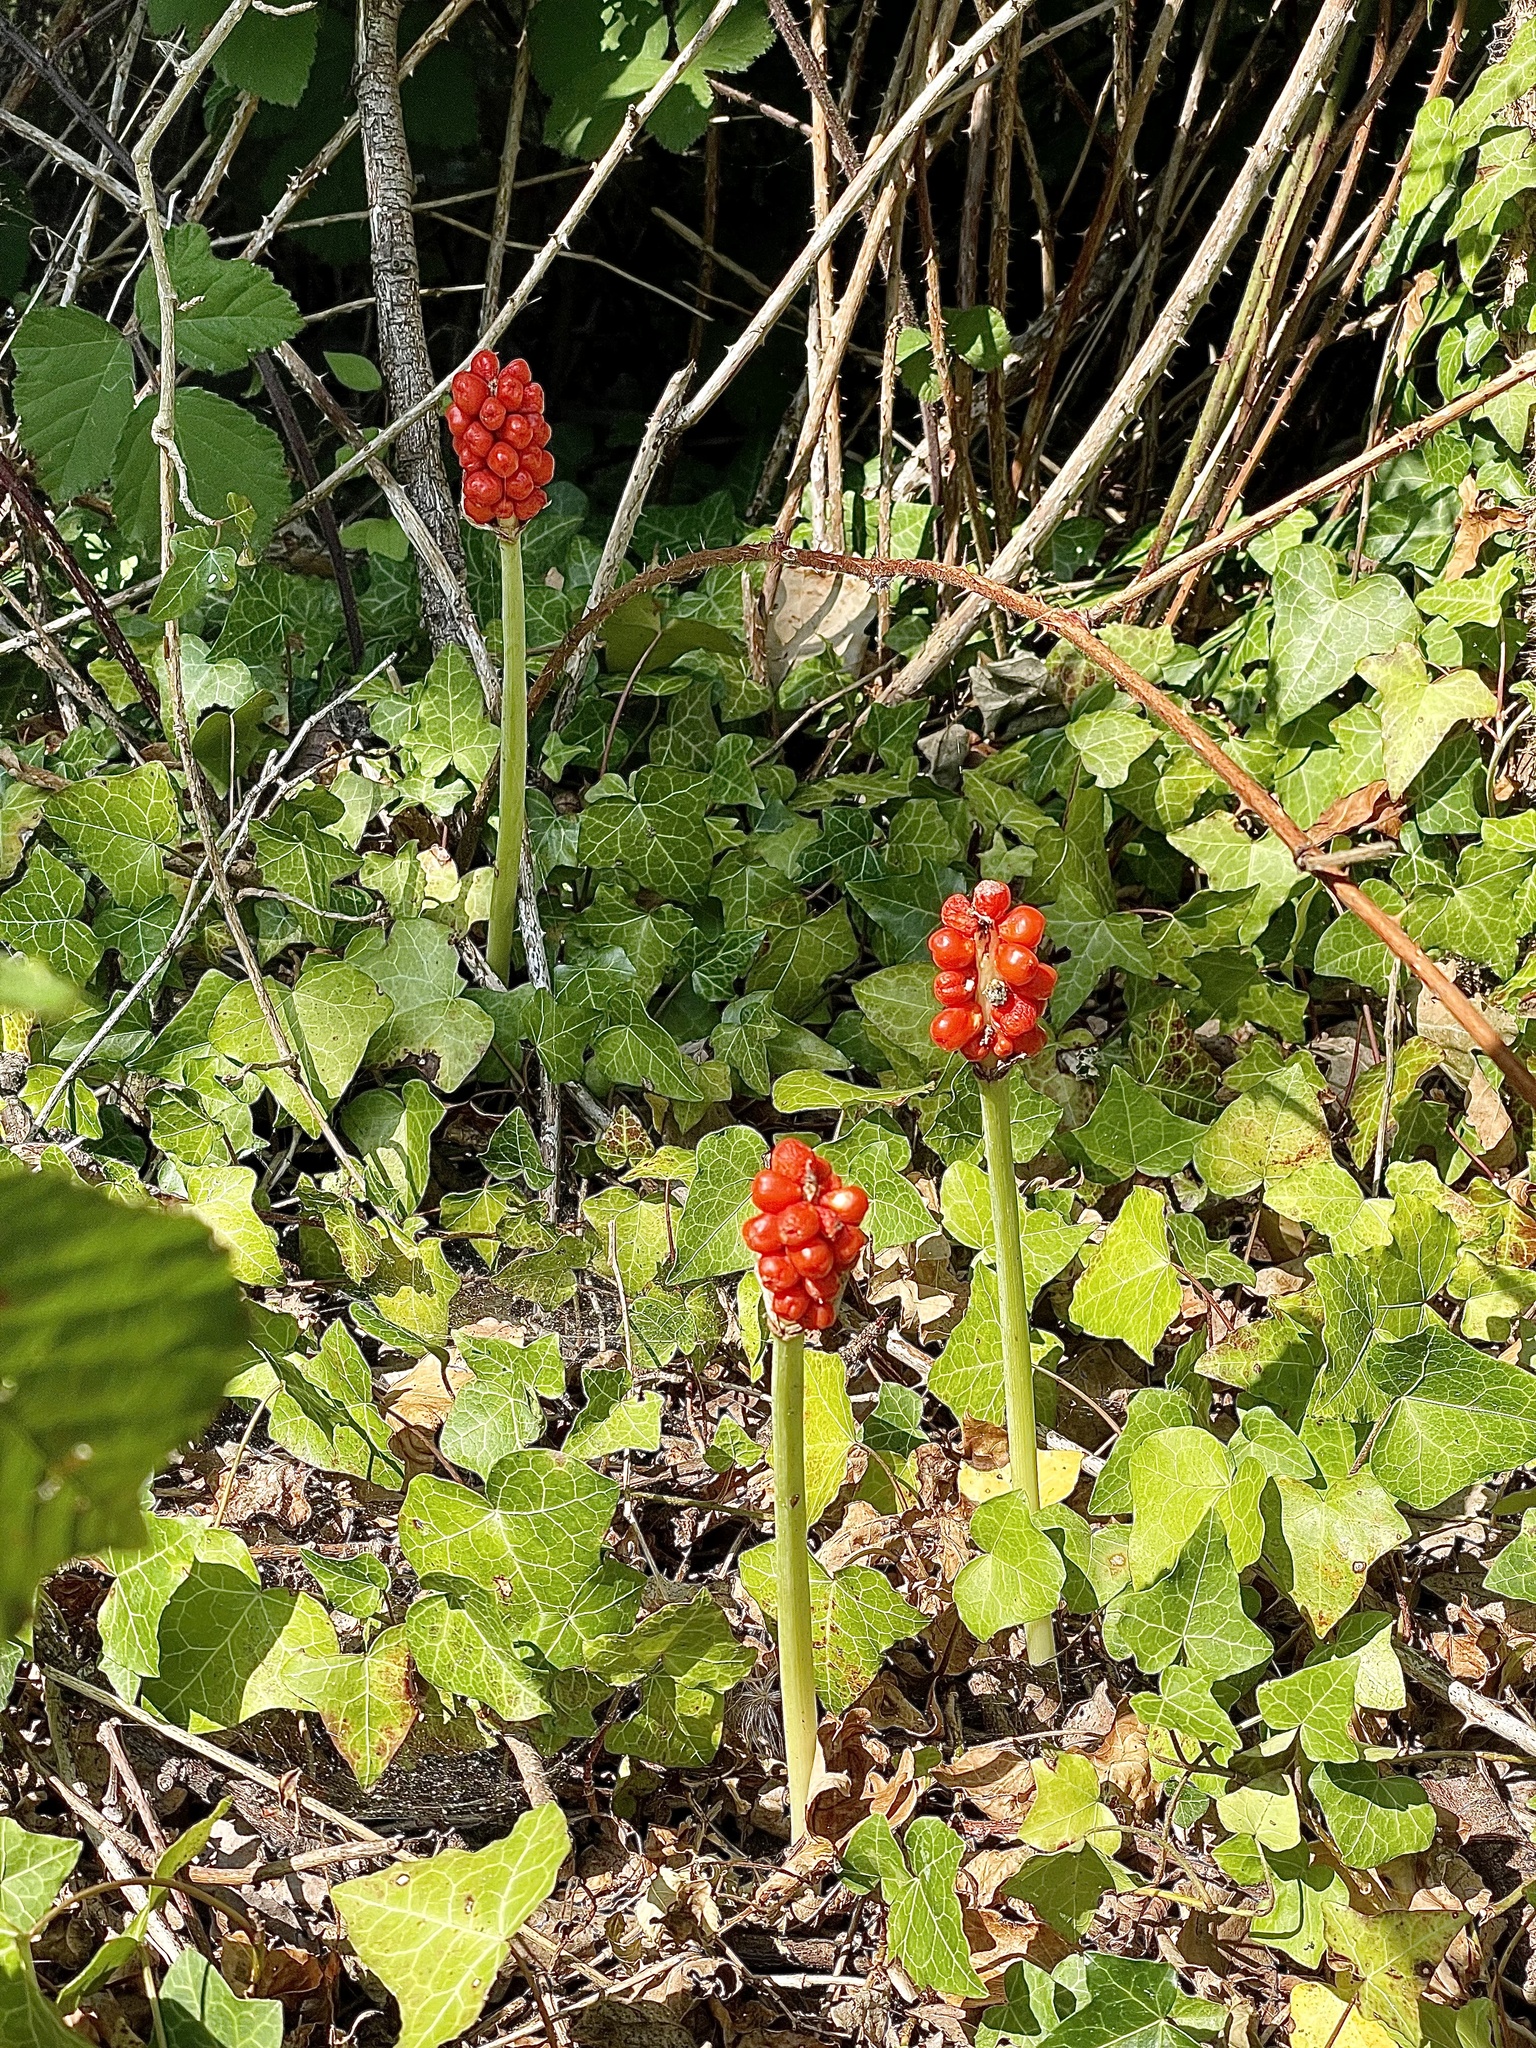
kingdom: Plantae
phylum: Tracheophyta
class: Liliopsida
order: Alismatales
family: Araceae
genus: Arum
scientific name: Arum cylindraceum
